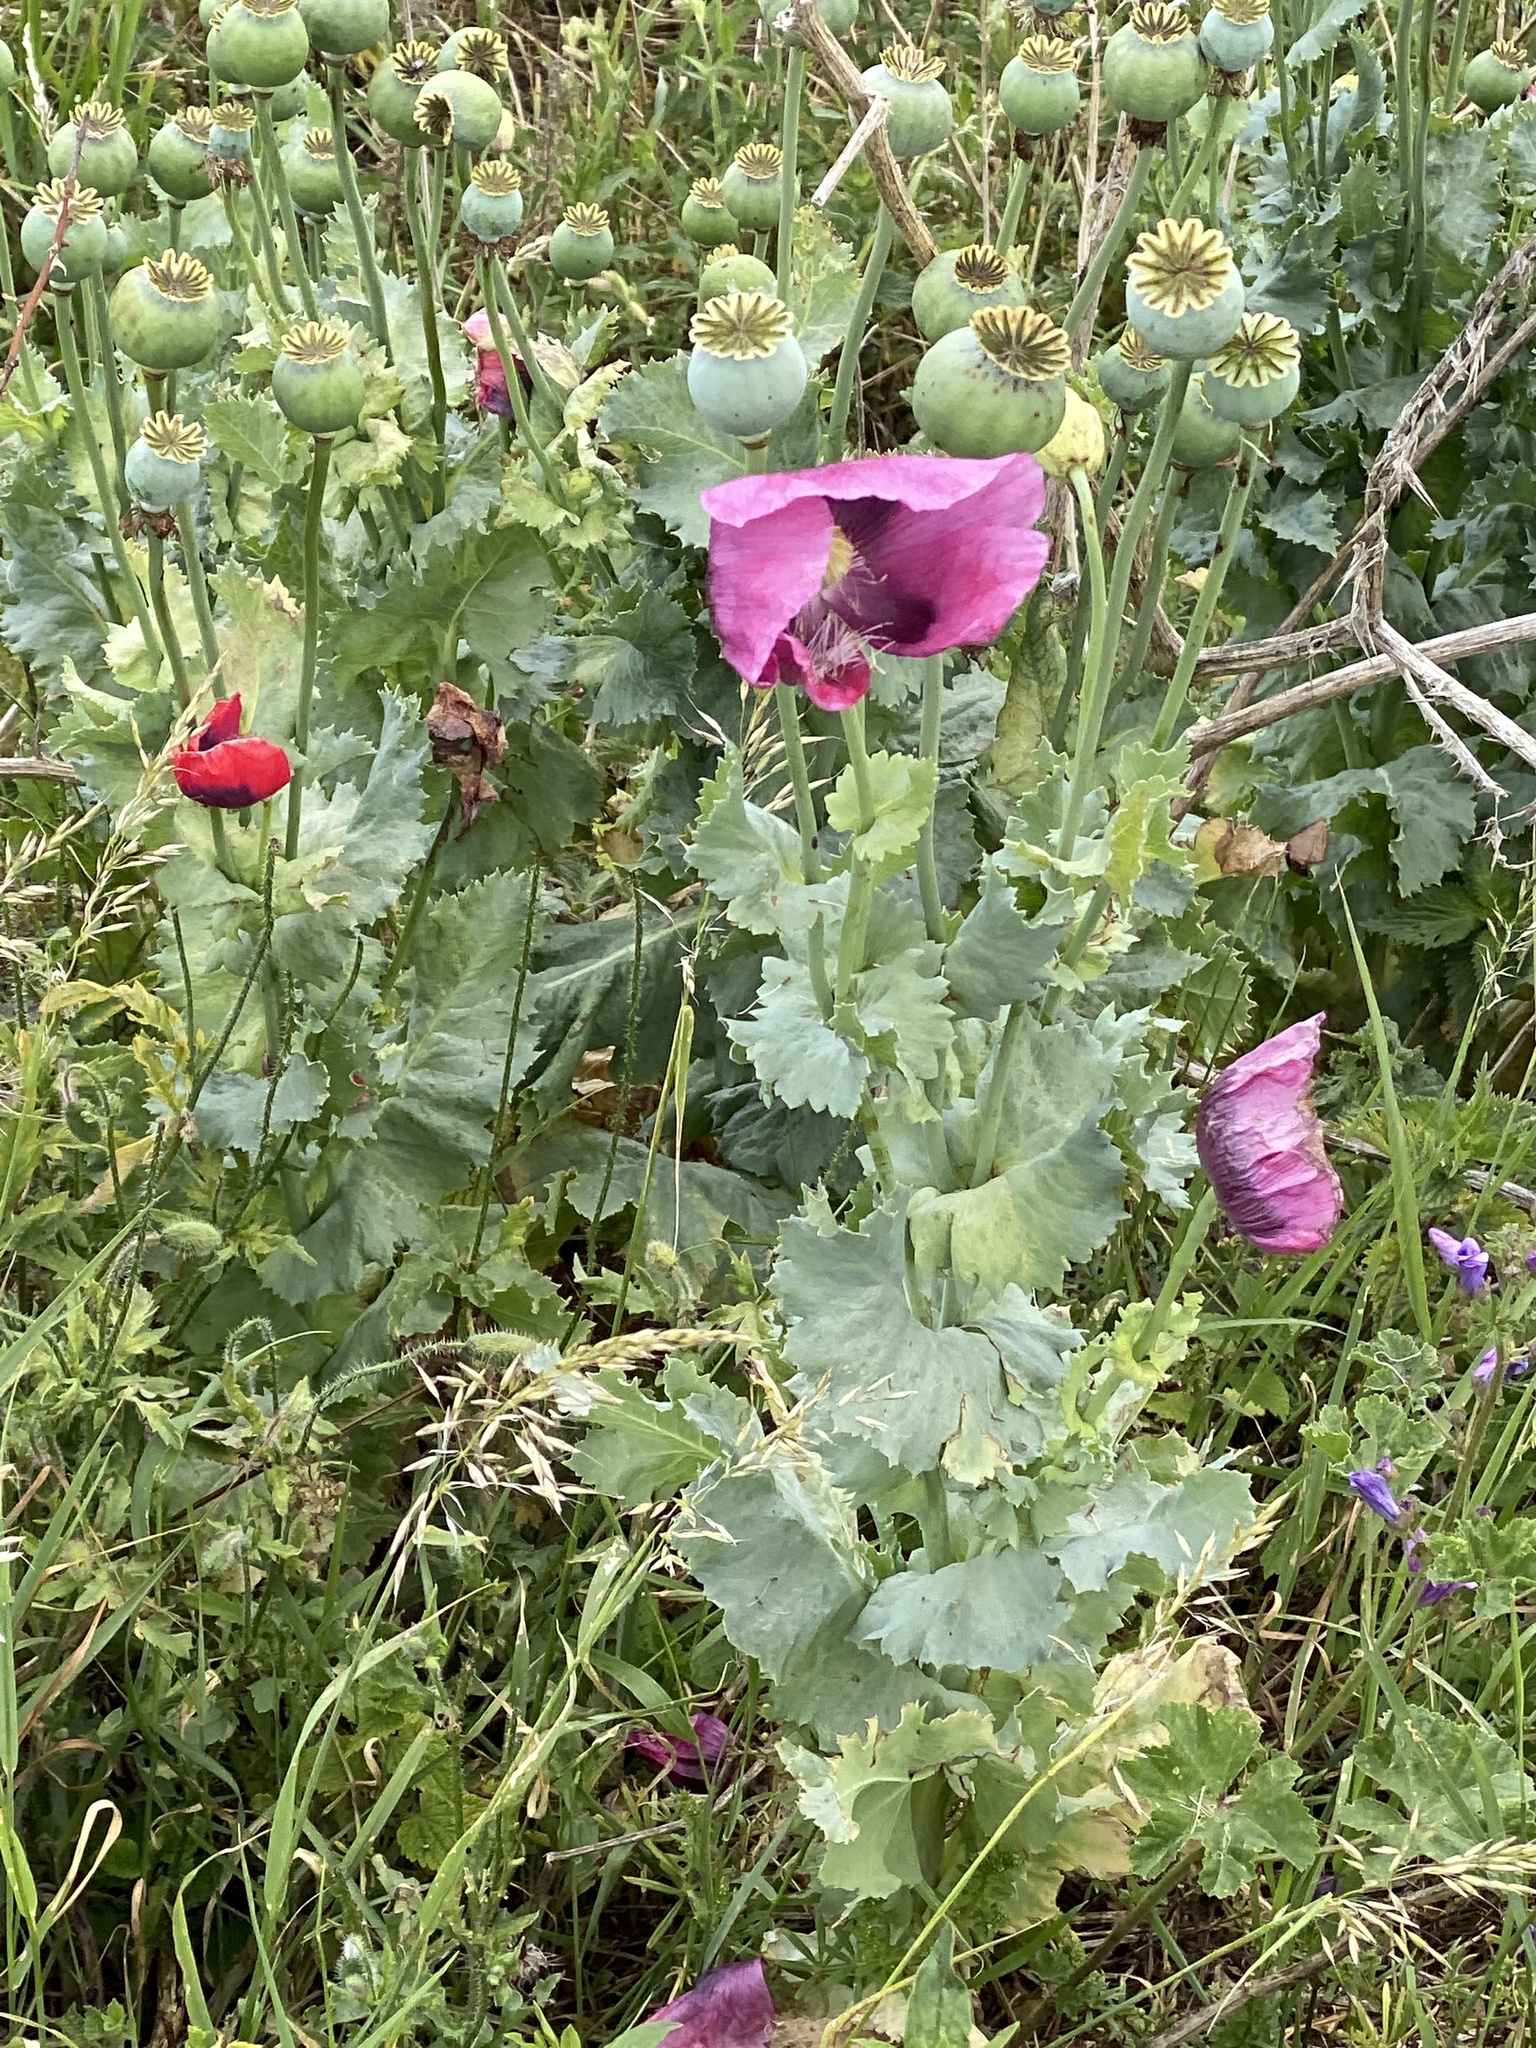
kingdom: Plantae
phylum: Tracheophyta
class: Magnoliopsida
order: Ranunculales
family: Papaveraceae
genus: Papaver
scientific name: Papaver somniferum
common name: Opium poppy
